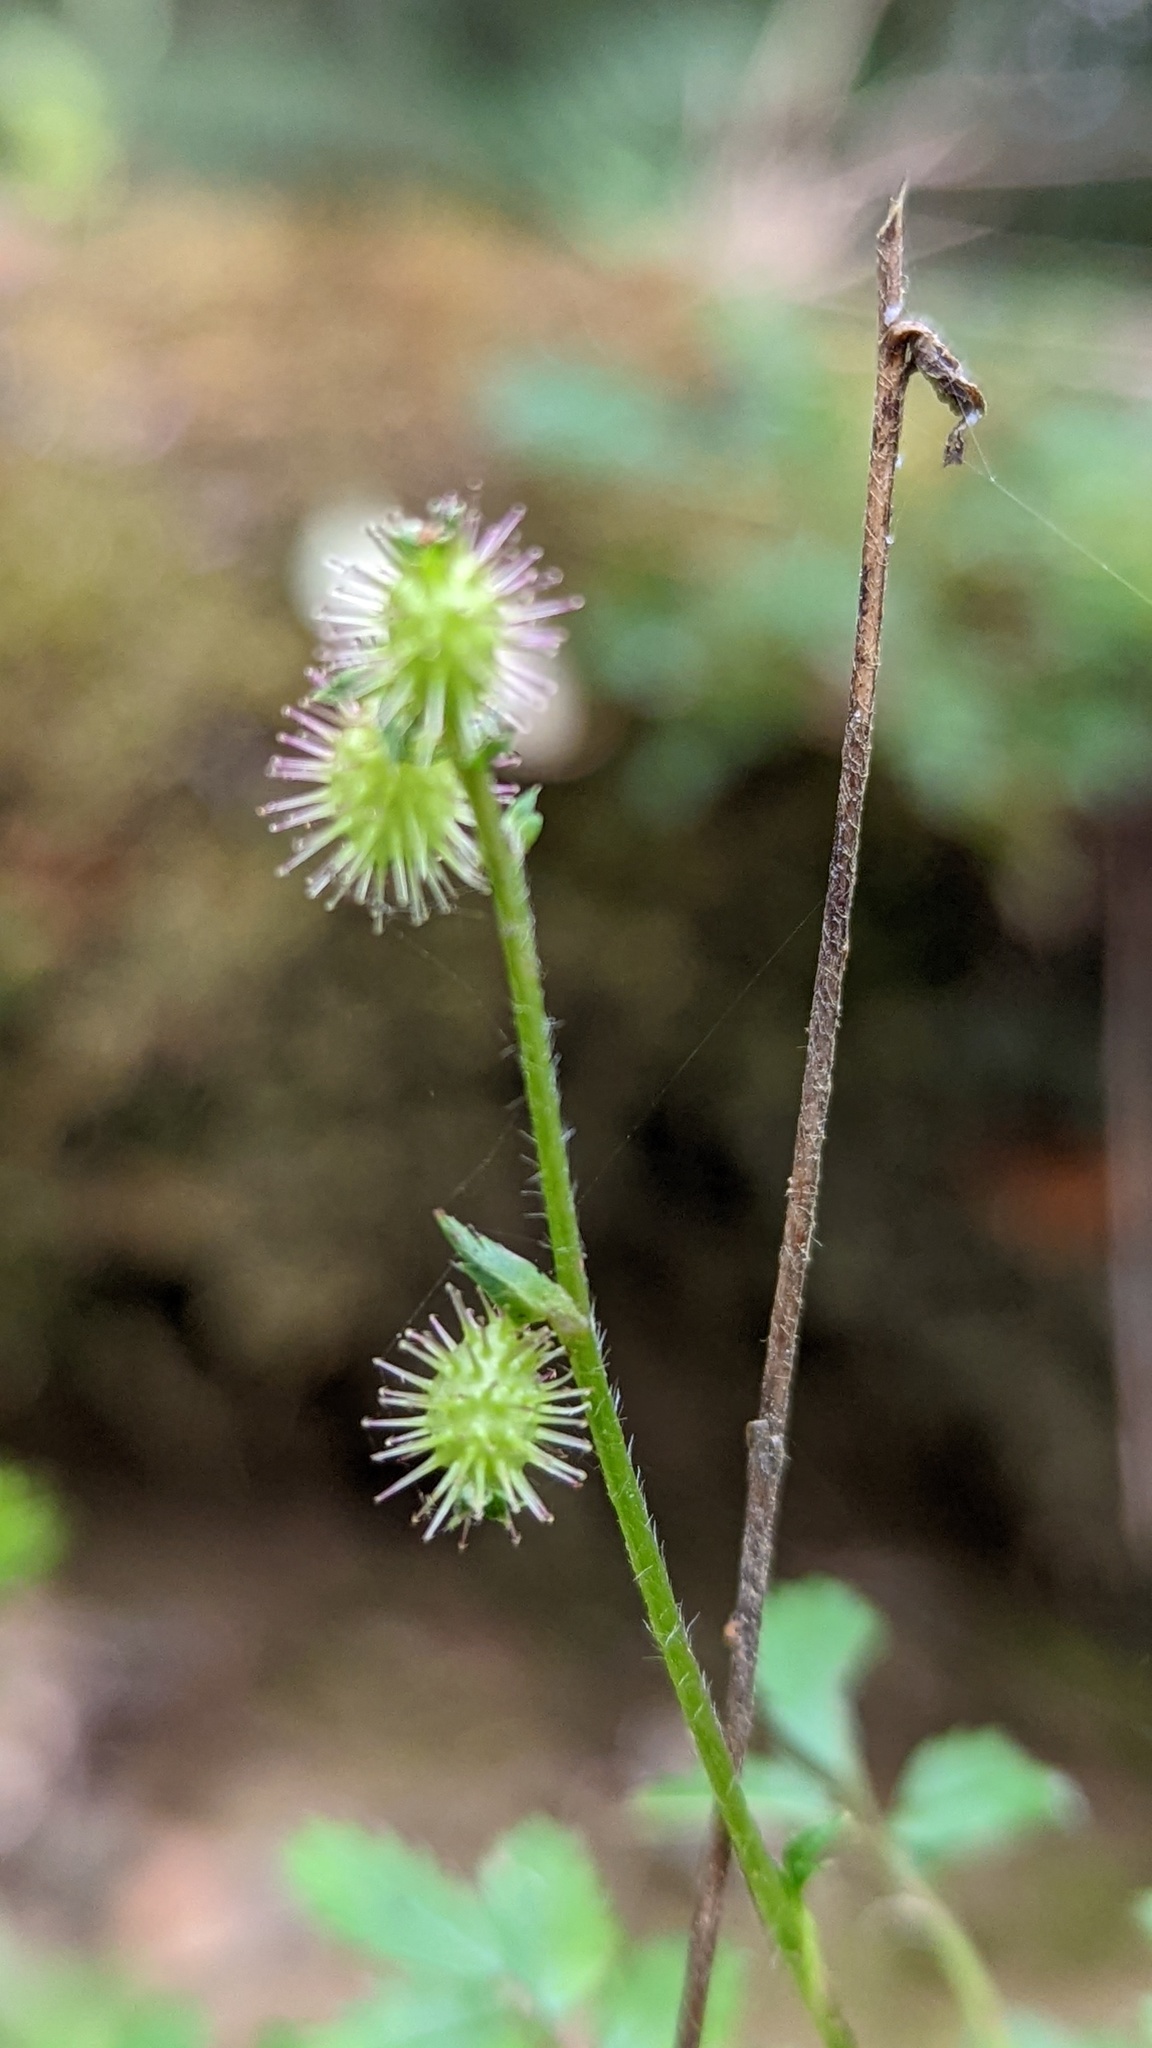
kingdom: Plantae
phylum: Tracheophyta
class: Magnoliopsida
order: Rosales
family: Rosaceae
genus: Acaena
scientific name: Acaena elongata
